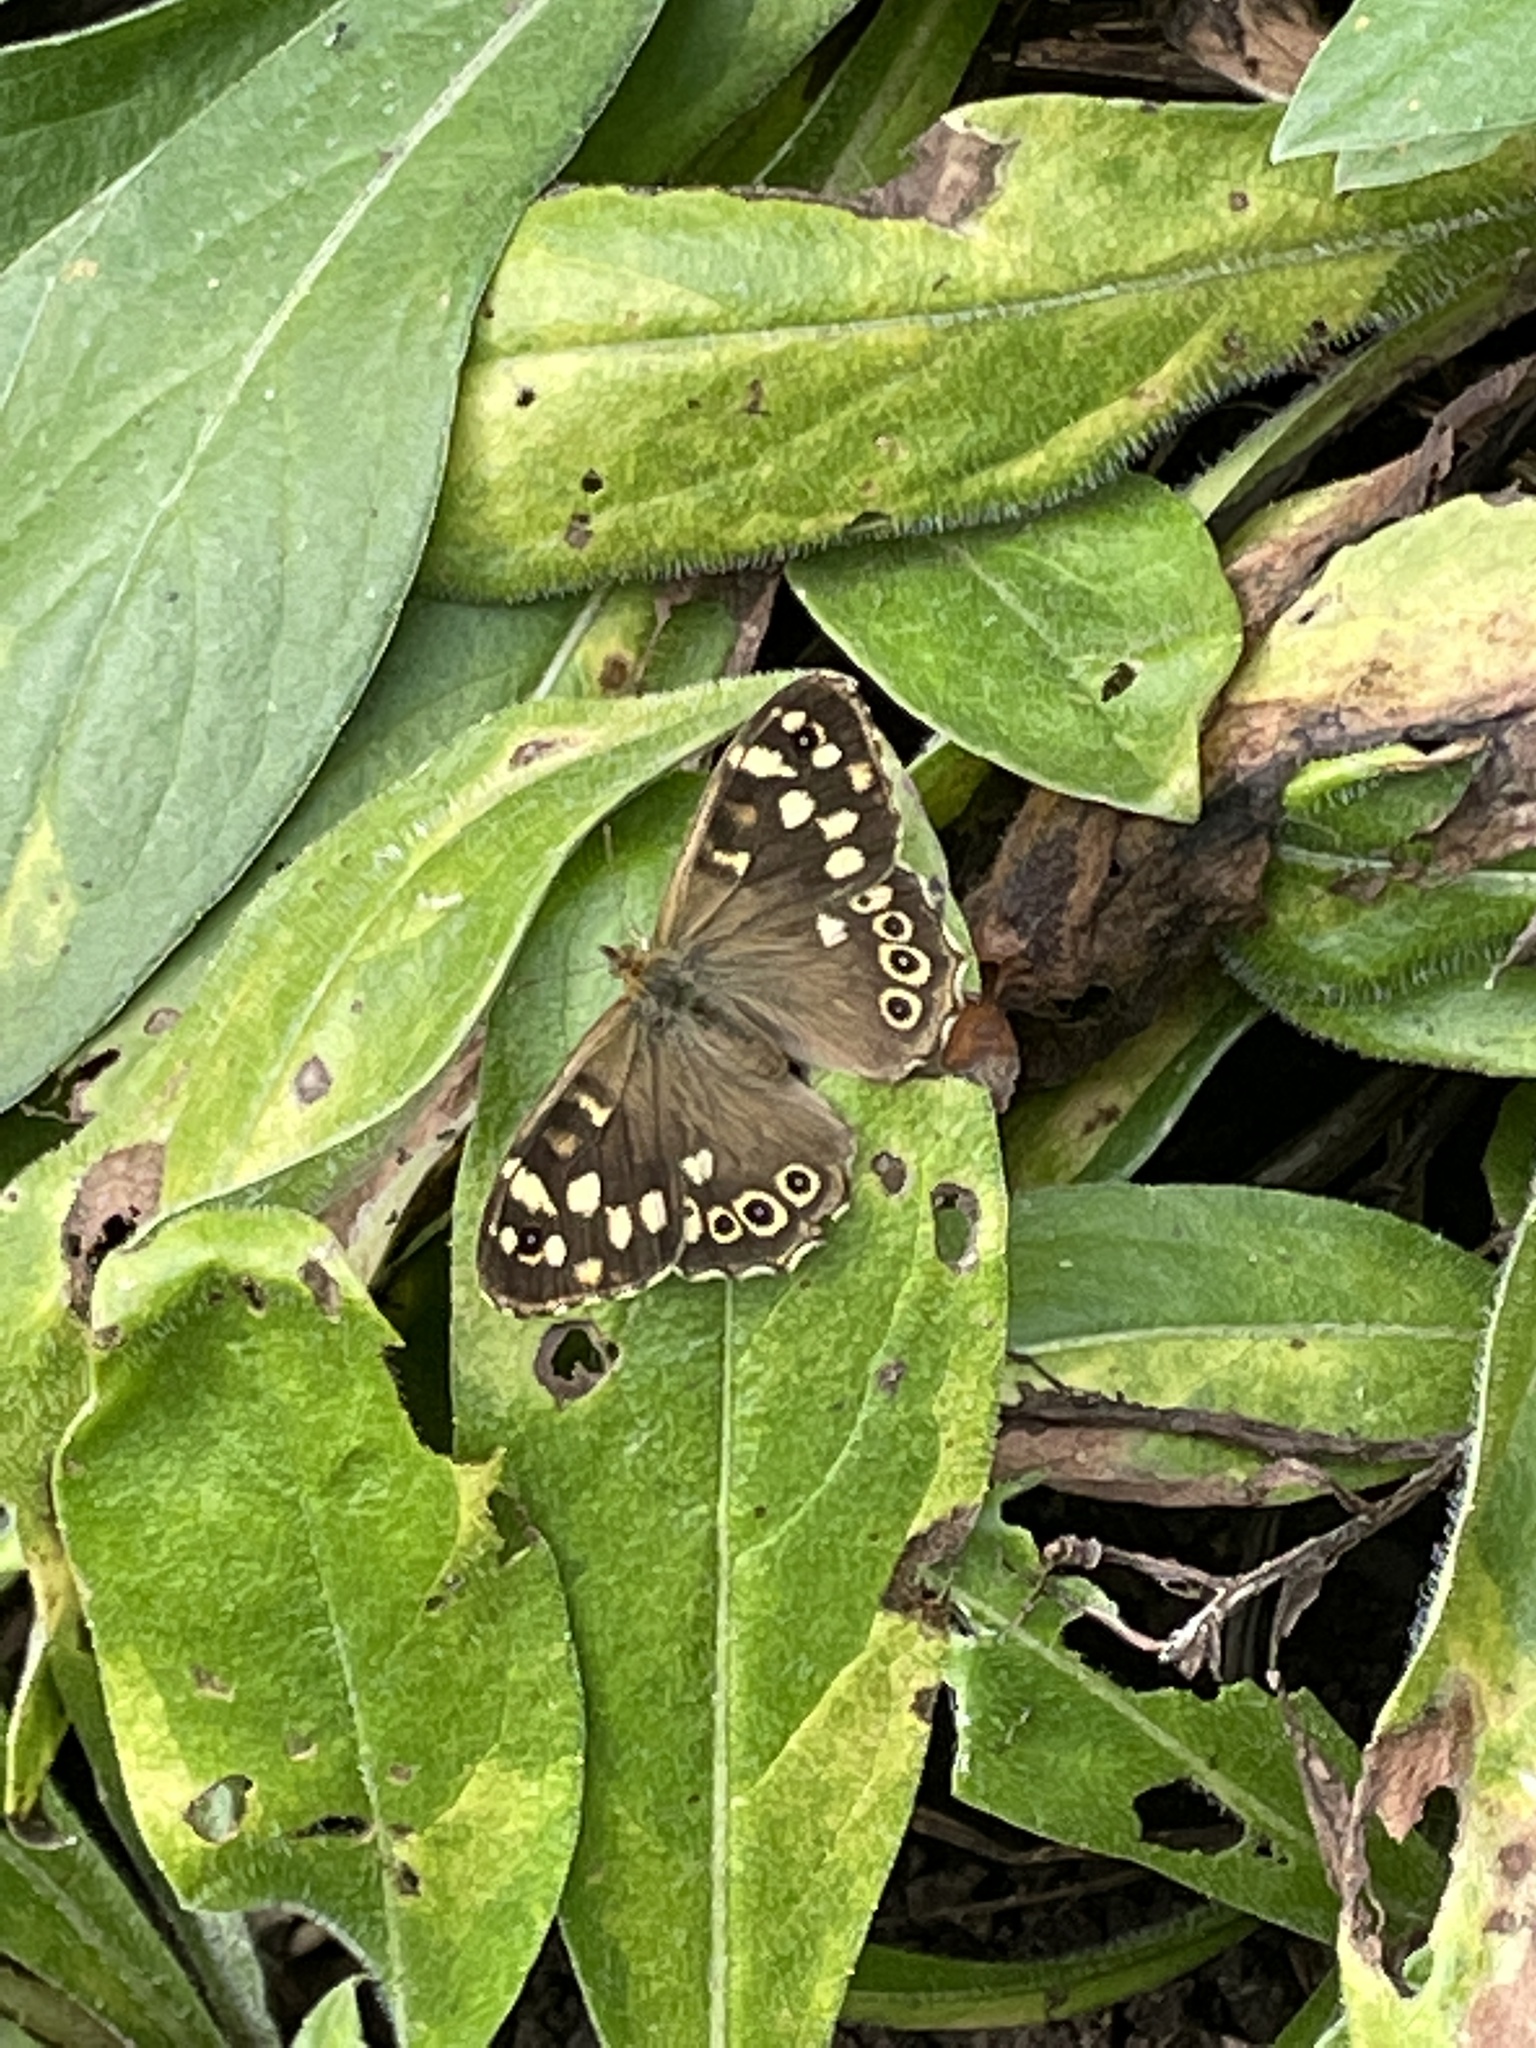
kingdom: Animalia
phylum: Arthropoda
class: Insecta
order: Lepidoptera
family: Nymphalidae
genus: Pararge
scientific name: Pararge aegeria
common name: Speckled wood
